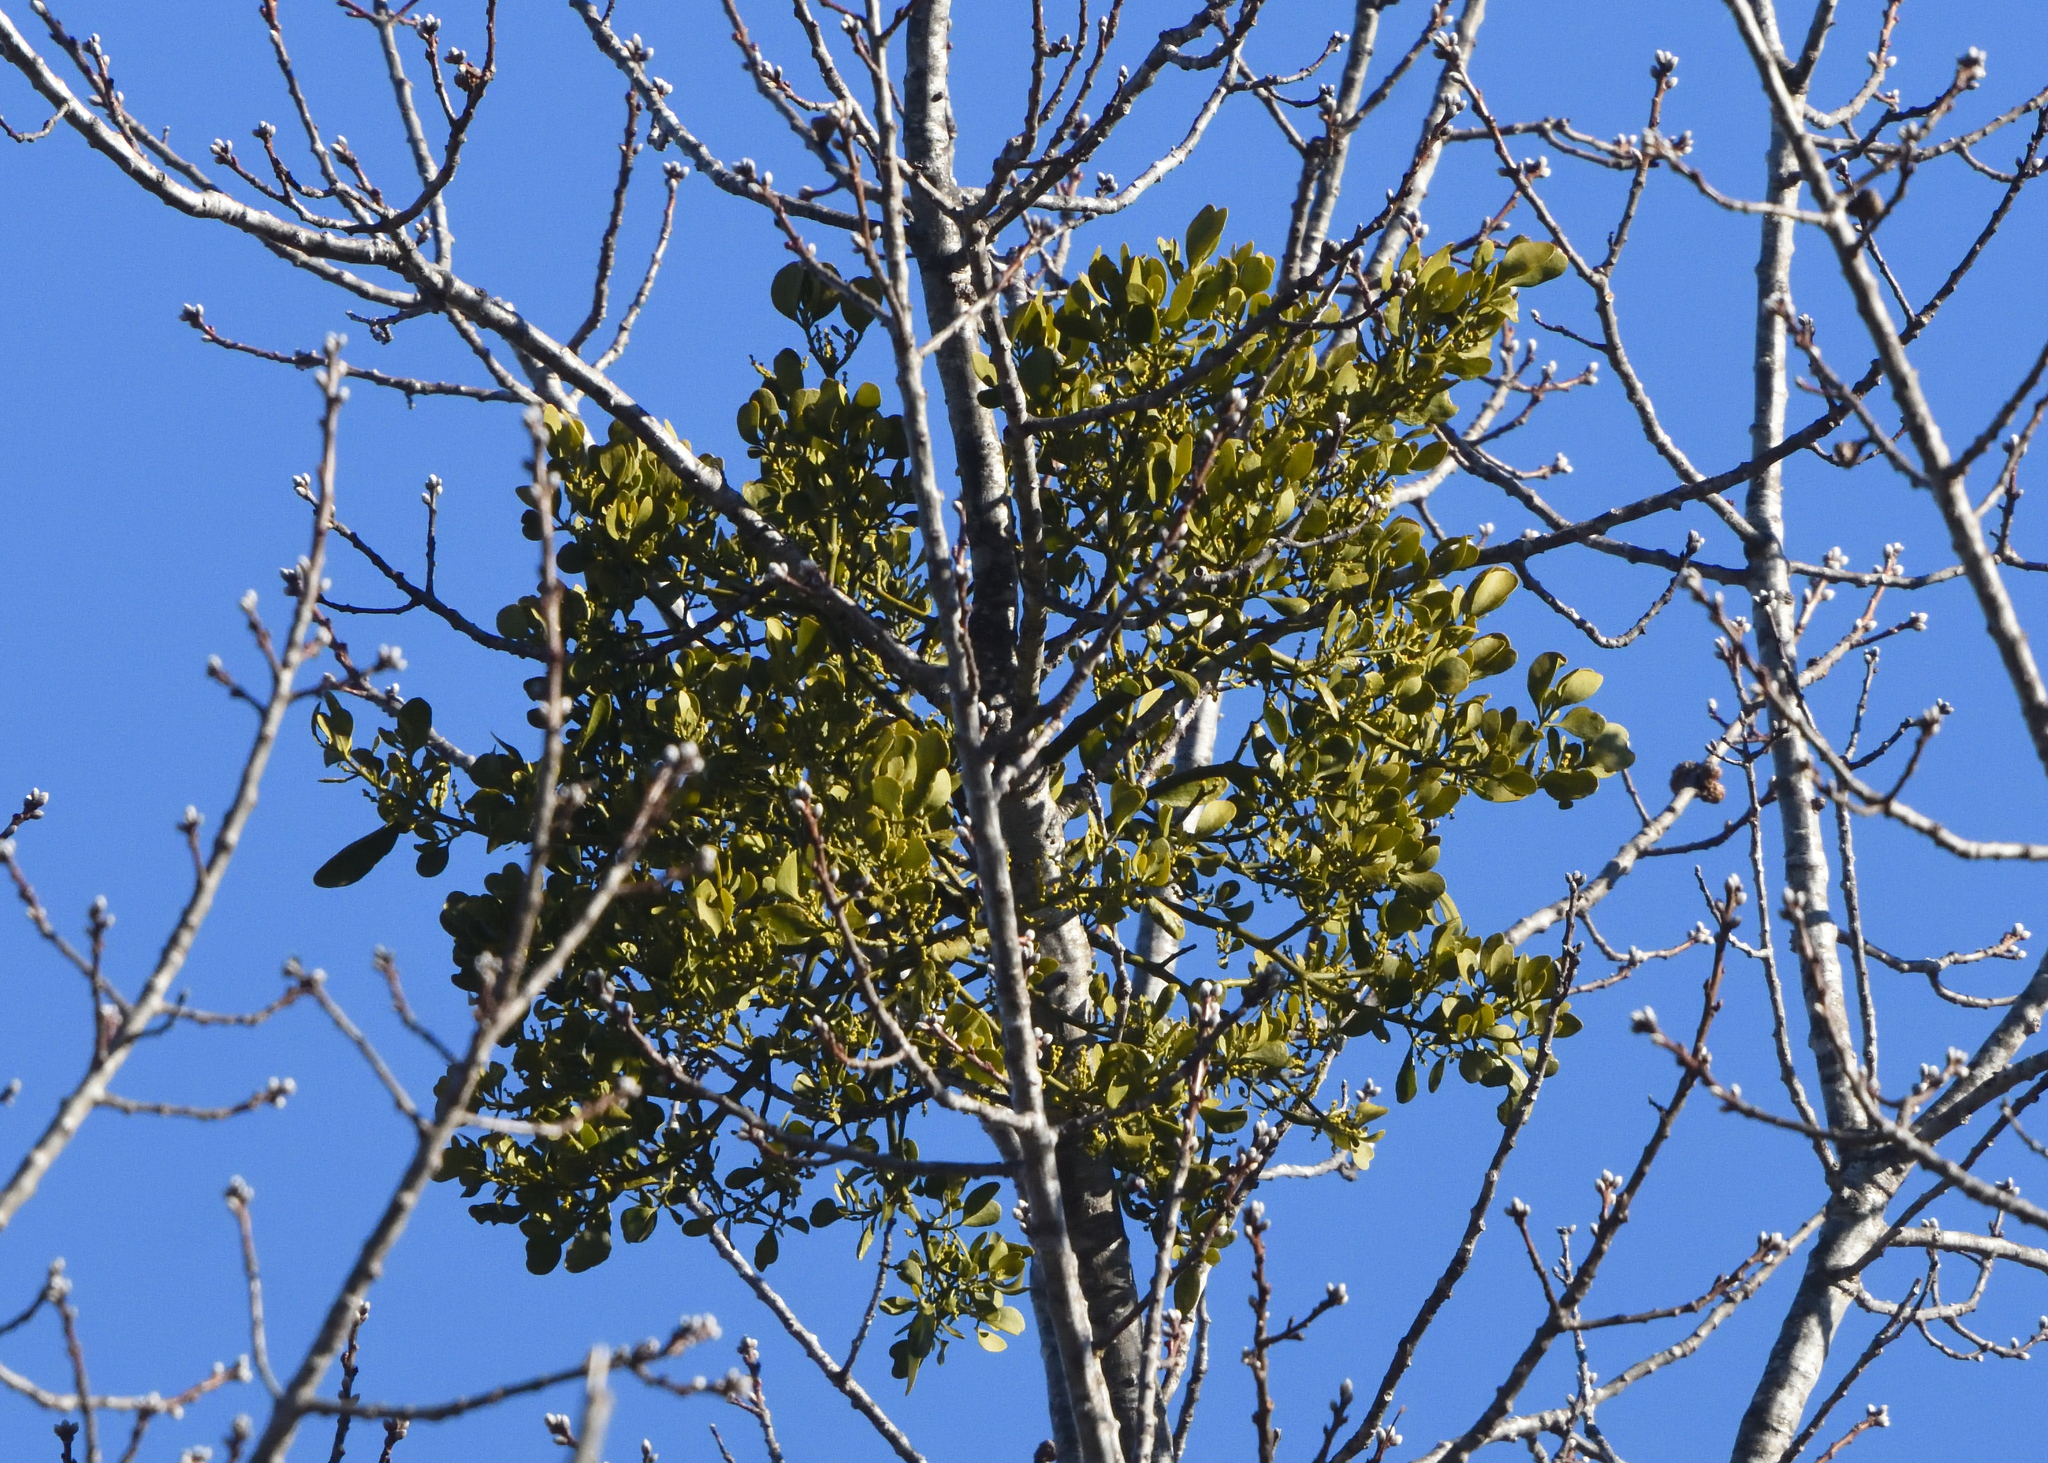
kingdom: Plantae
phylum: Tracheophyta
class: Magnoliopsida
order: Santalales
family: Viscaceae
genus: Phoradendron
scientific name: Phoradendron leucarpum
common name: Pacific mistletoe
